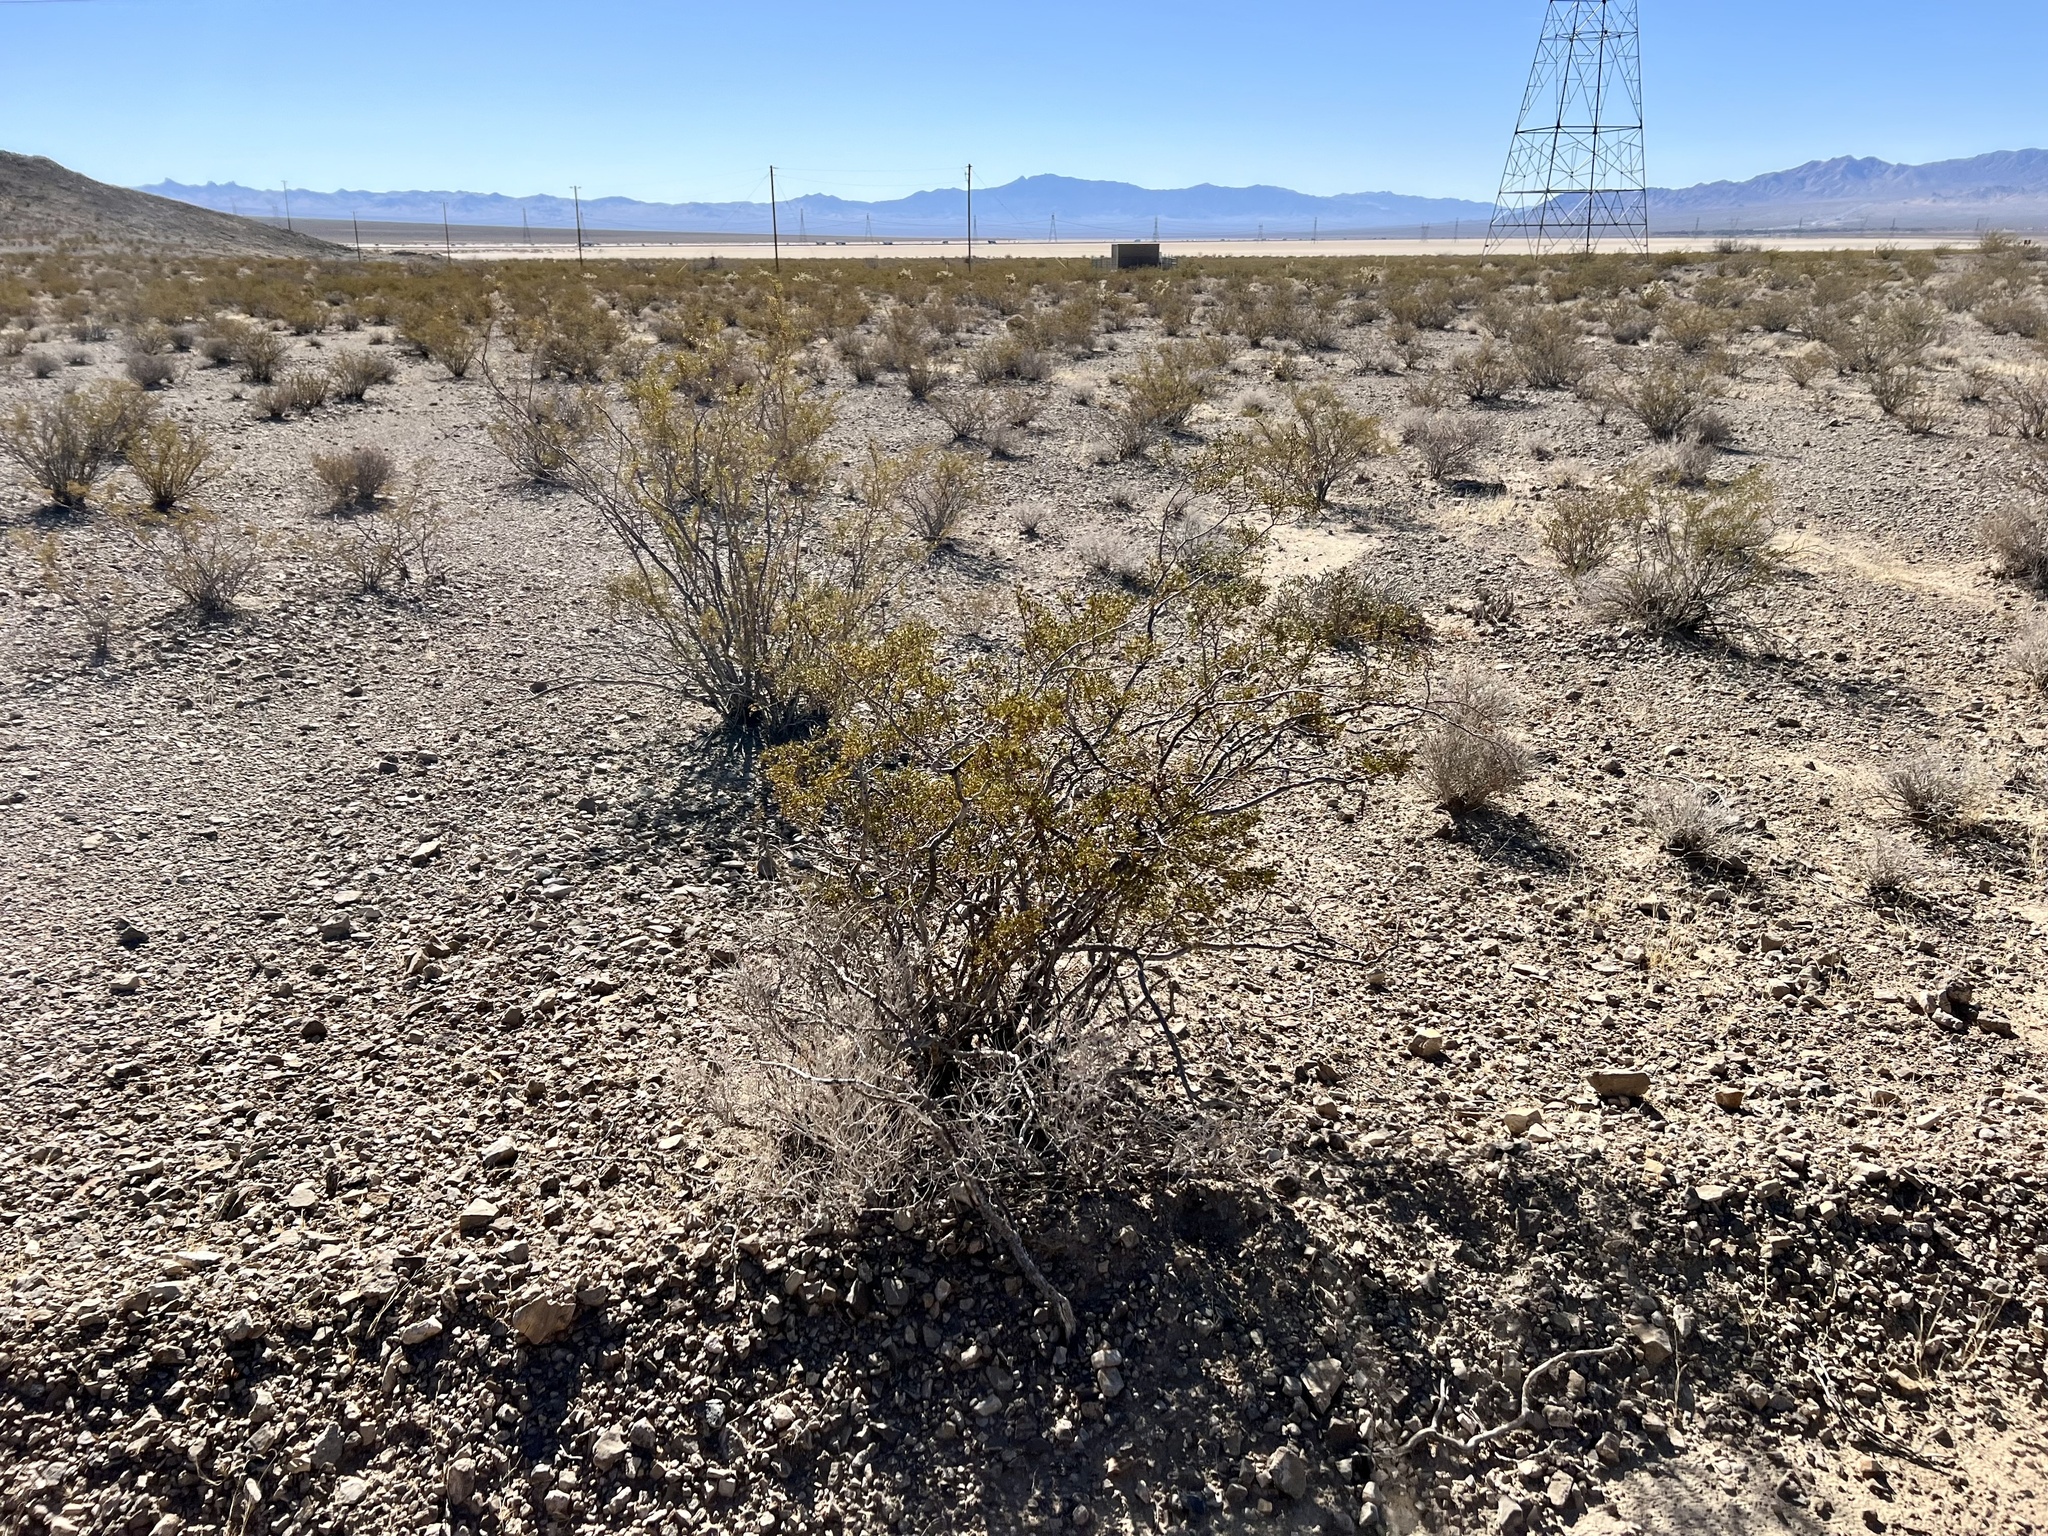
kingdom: Plantae
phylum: Tracheophyta
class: Magnoliopsida
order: Zygophyllales
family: Zygophyllaceae
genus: Larrea
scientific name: Larrea tridentata
